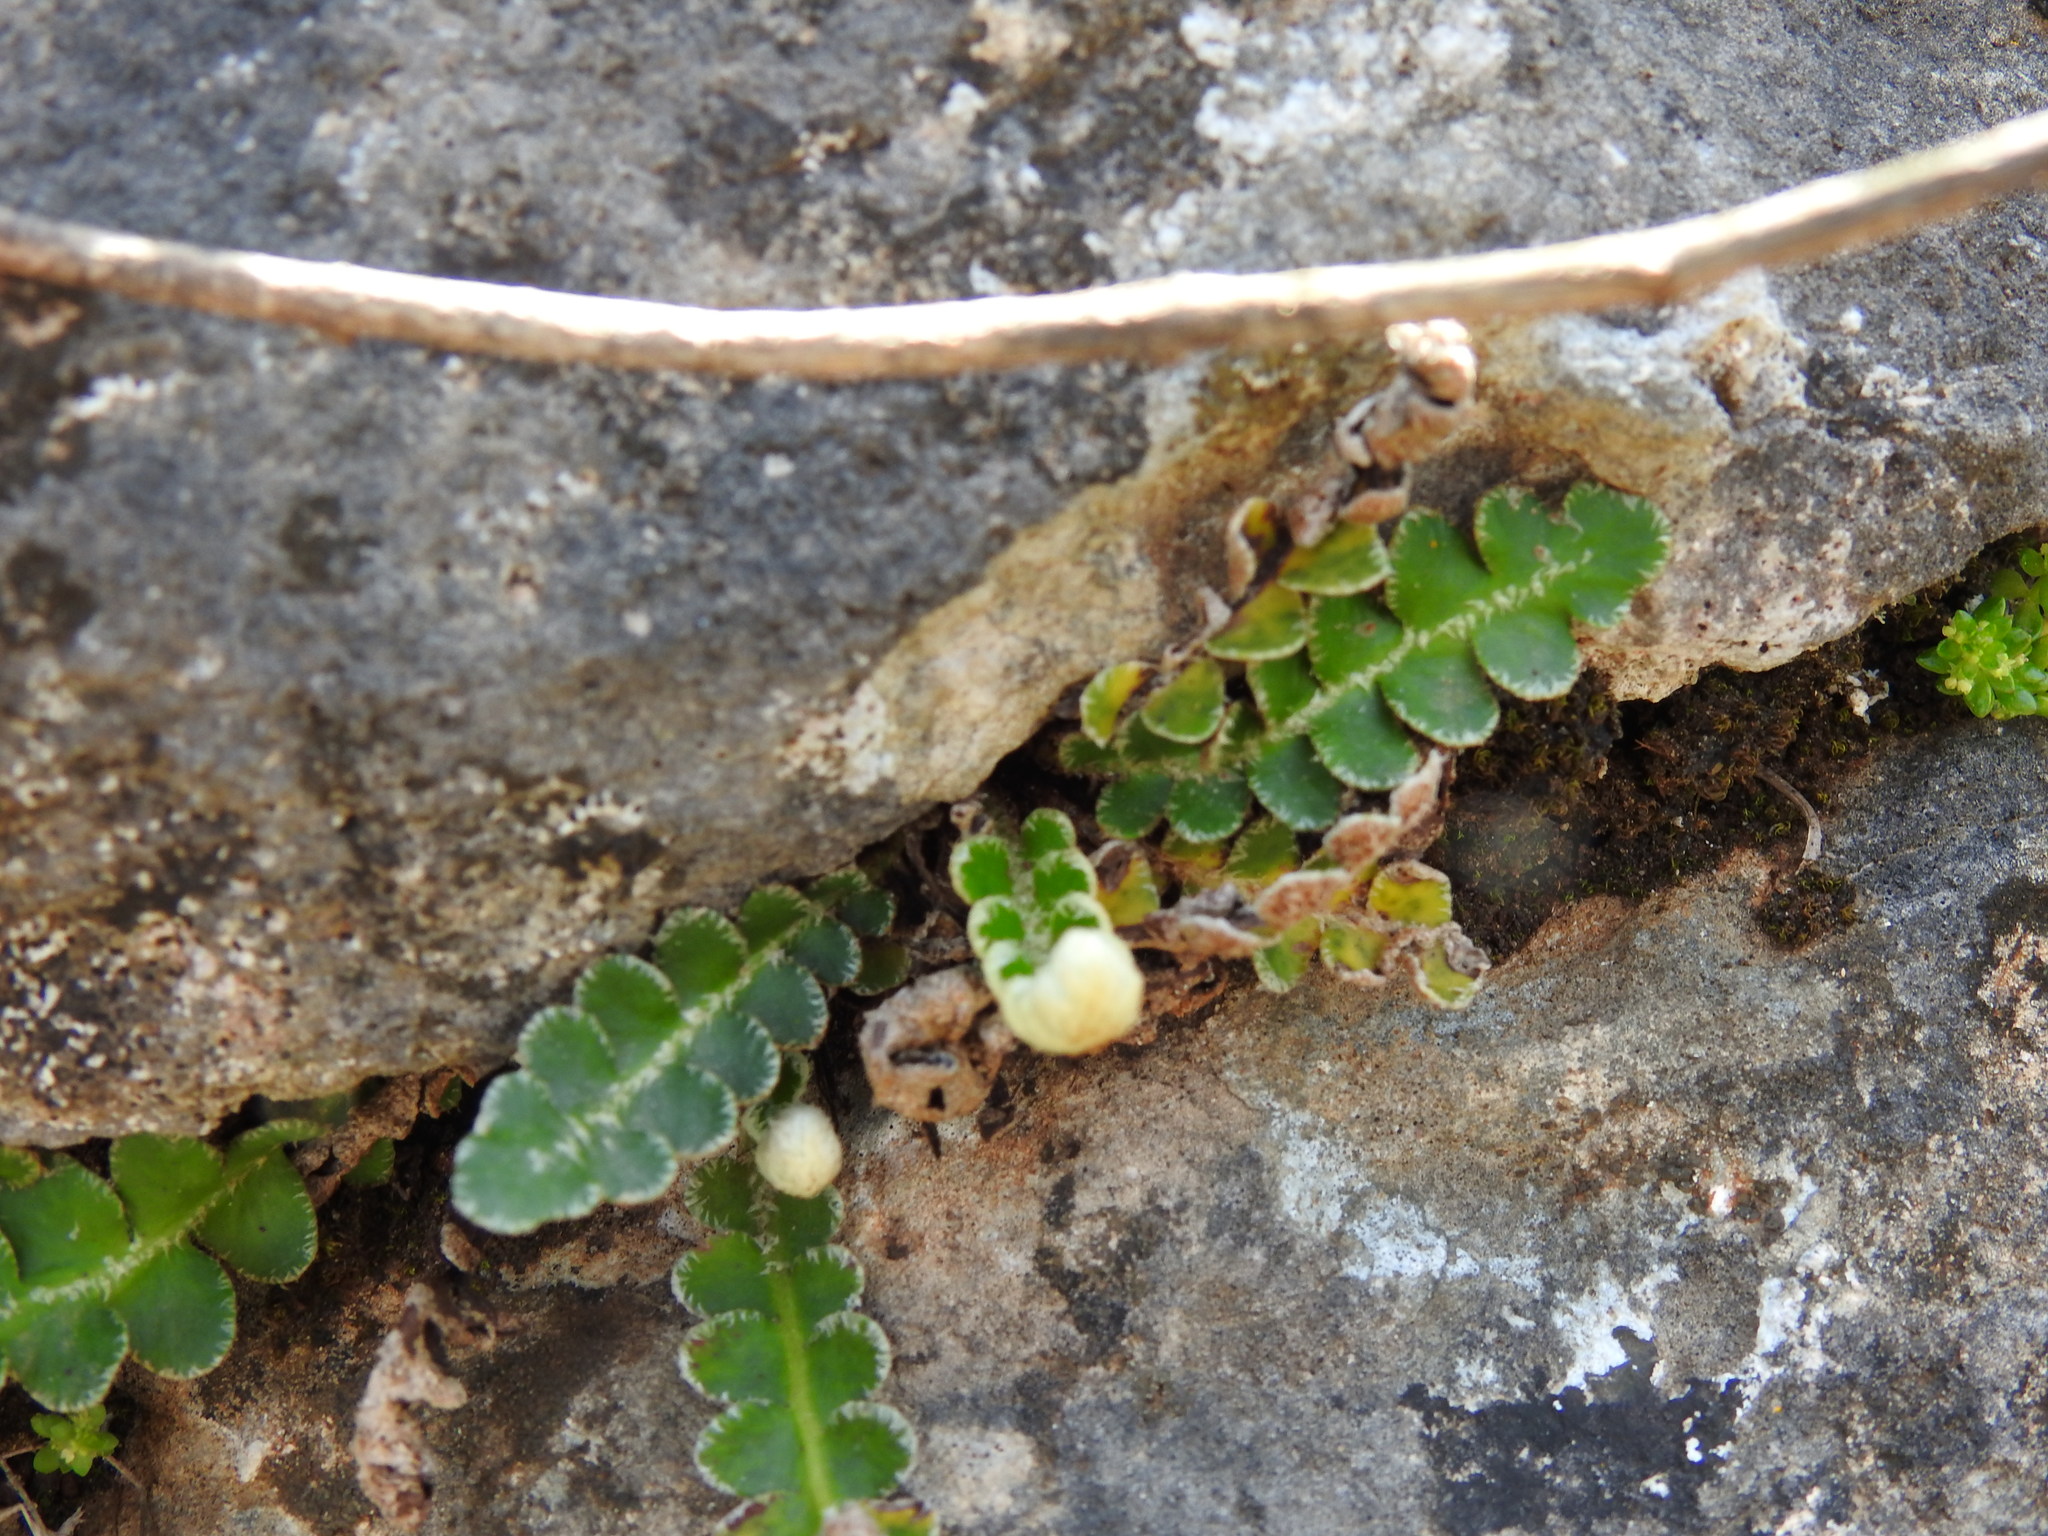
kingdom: Plantae
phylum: Tracheophyta
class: Polypodiopsida
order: Polypodiales
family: Aspleniaceae
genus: Asplenium
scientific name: Asplenium ceterach
